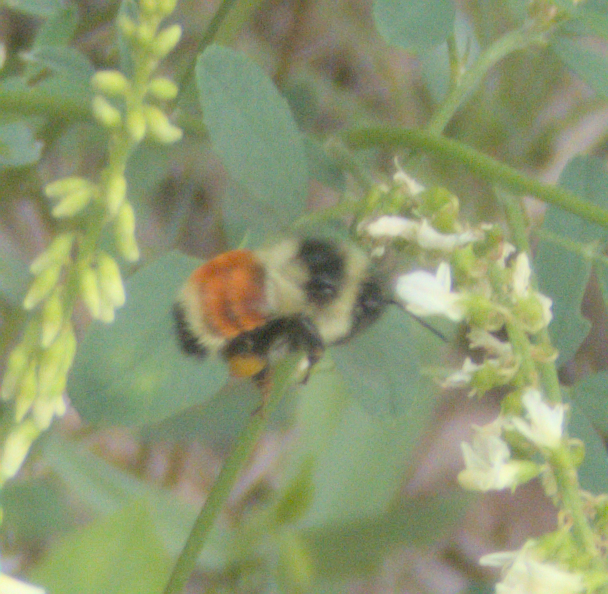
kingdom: Animalia
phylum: Arthropoda
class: Insecta
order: Hymenoptera
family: Apidae
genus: Bombus
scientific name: Bombus ternarius
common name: Tri-colored bumble bee
